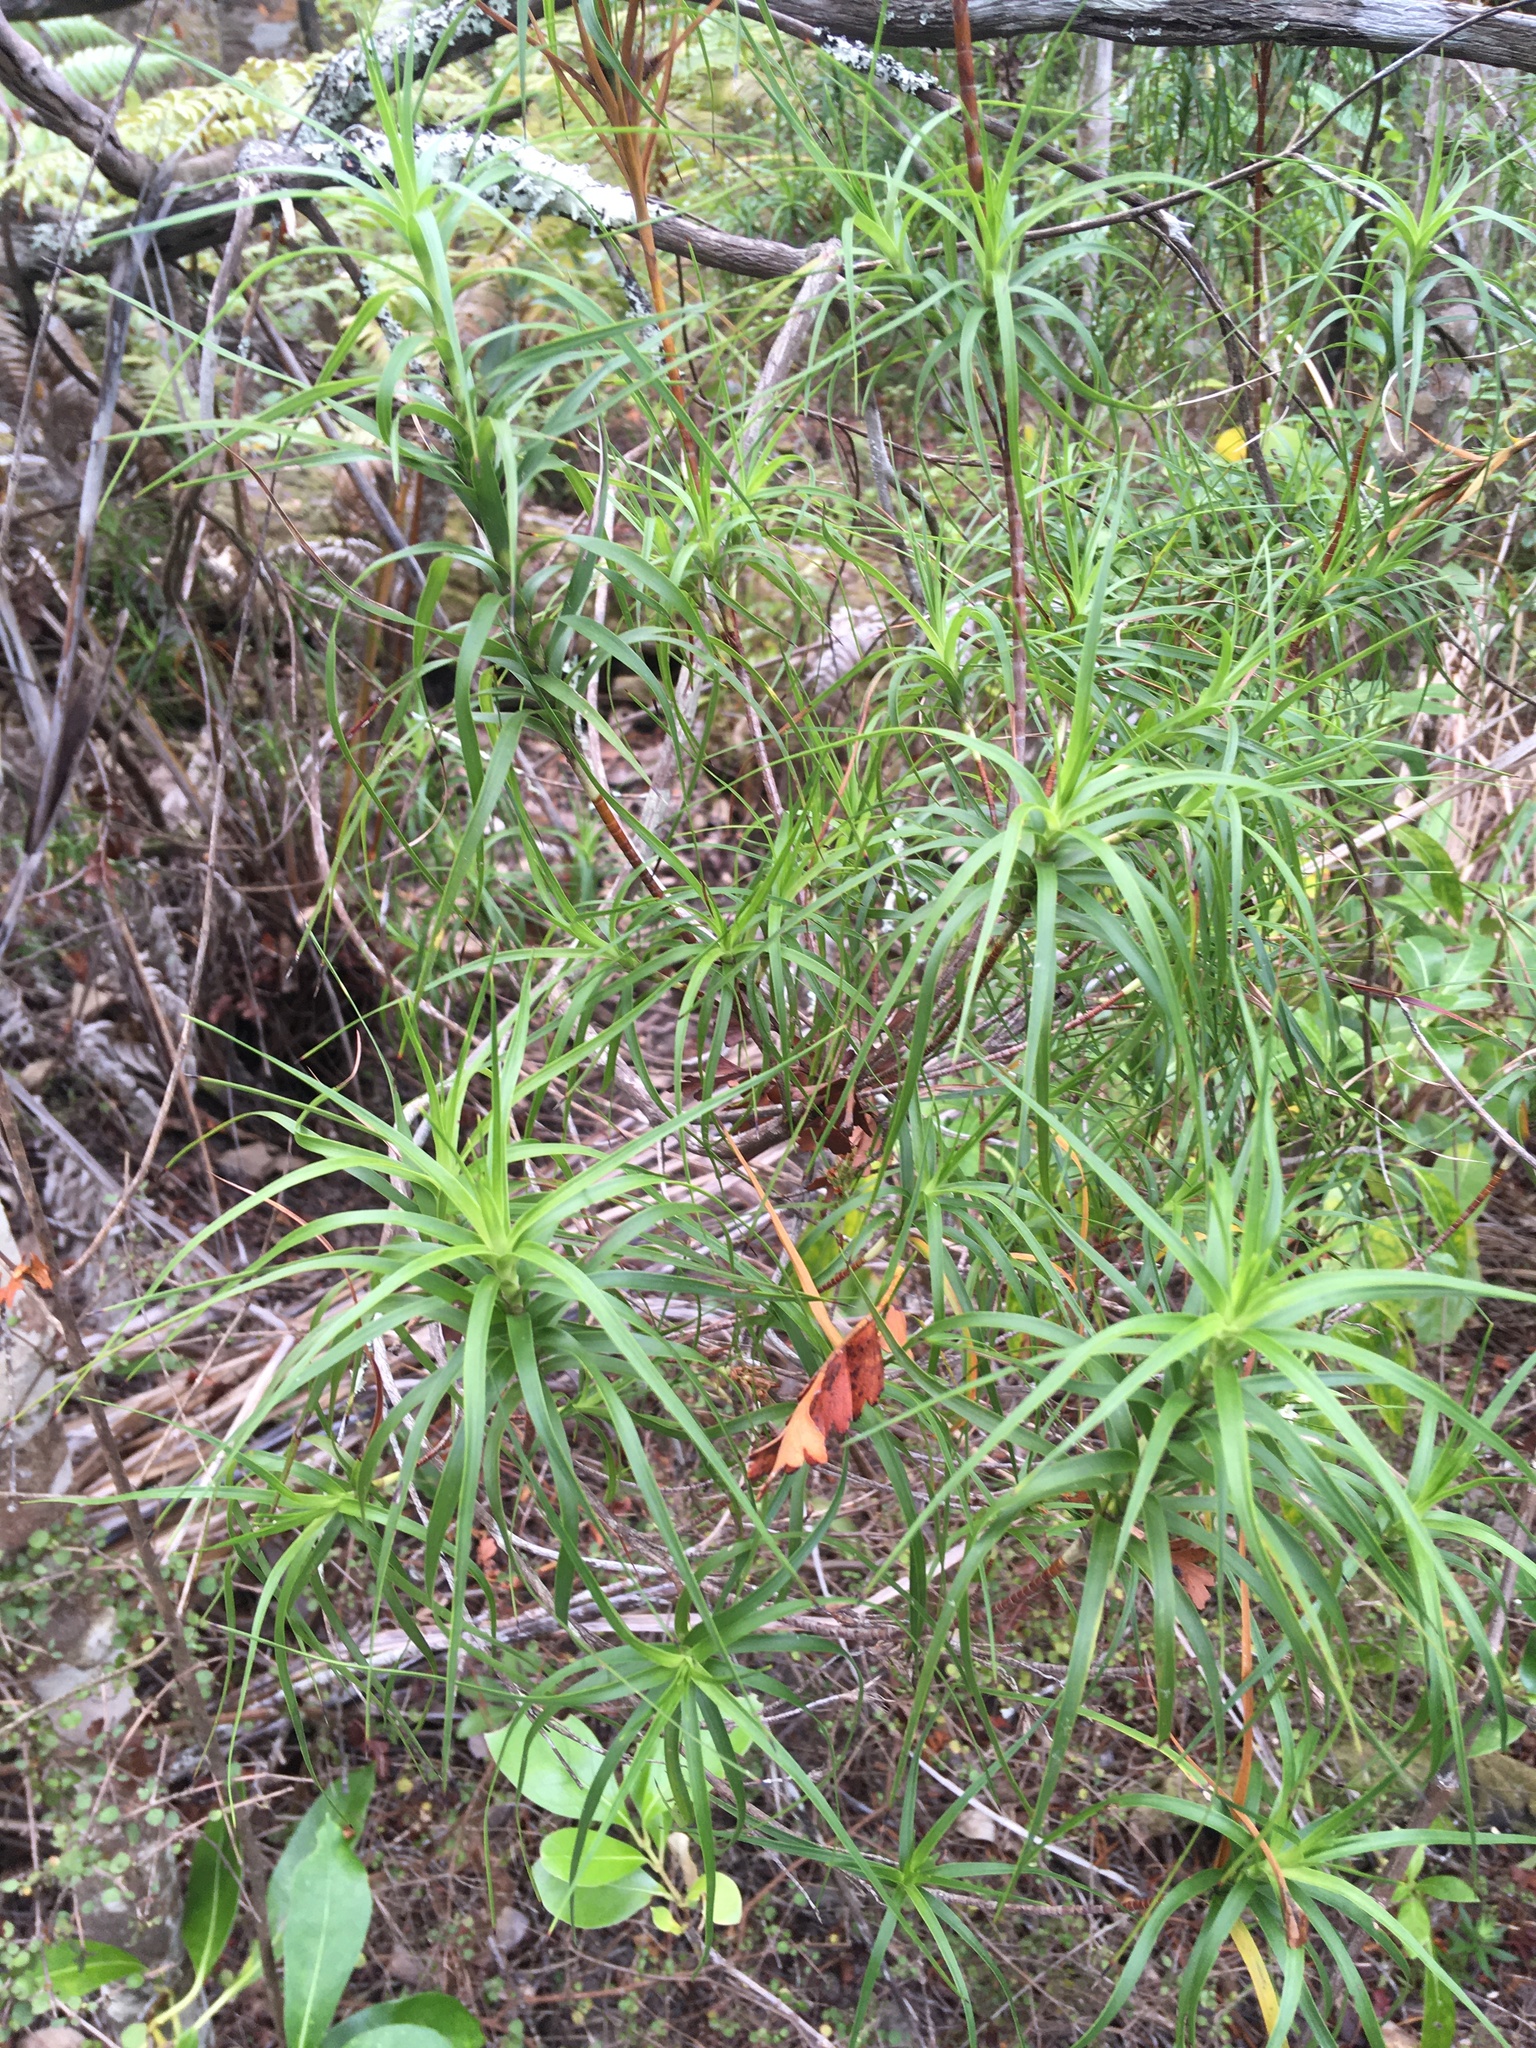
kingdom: Plantae
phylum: Tracheophyta
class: Magnoliopsida
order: Ericales
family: Ericaceae
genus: Dracophyllum
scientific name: Dracophyllum sinclairii
